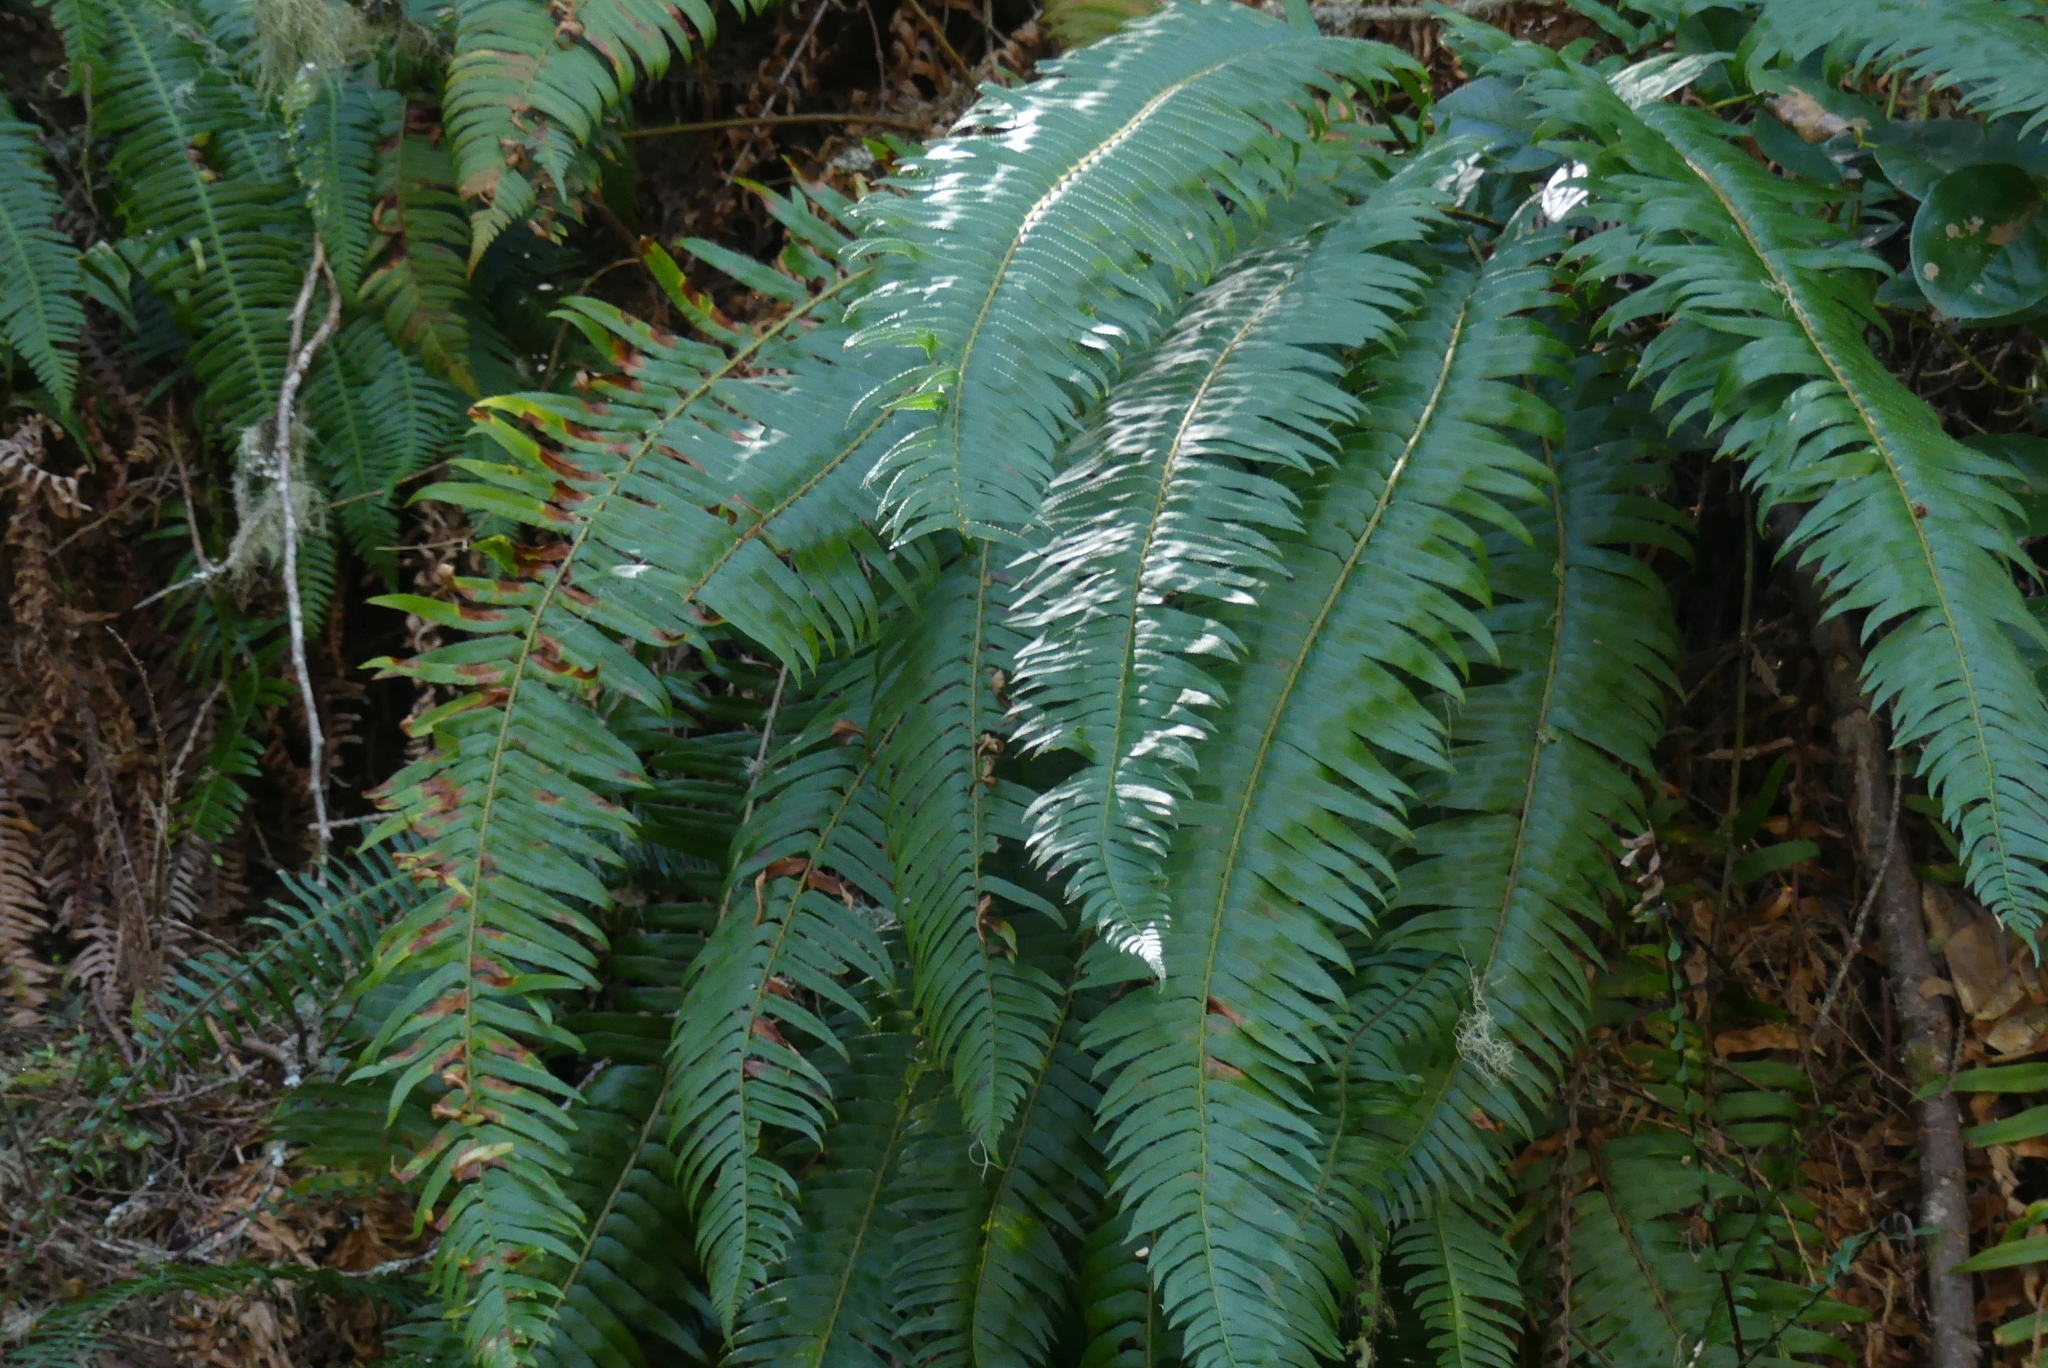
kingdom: Plantae
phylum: Tracheophyta
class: Polypodiopsida
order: Polypodiales
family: Dryopteridaceae
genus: Polystichum
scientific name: Polystichum munitum
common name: Western sword-fern
